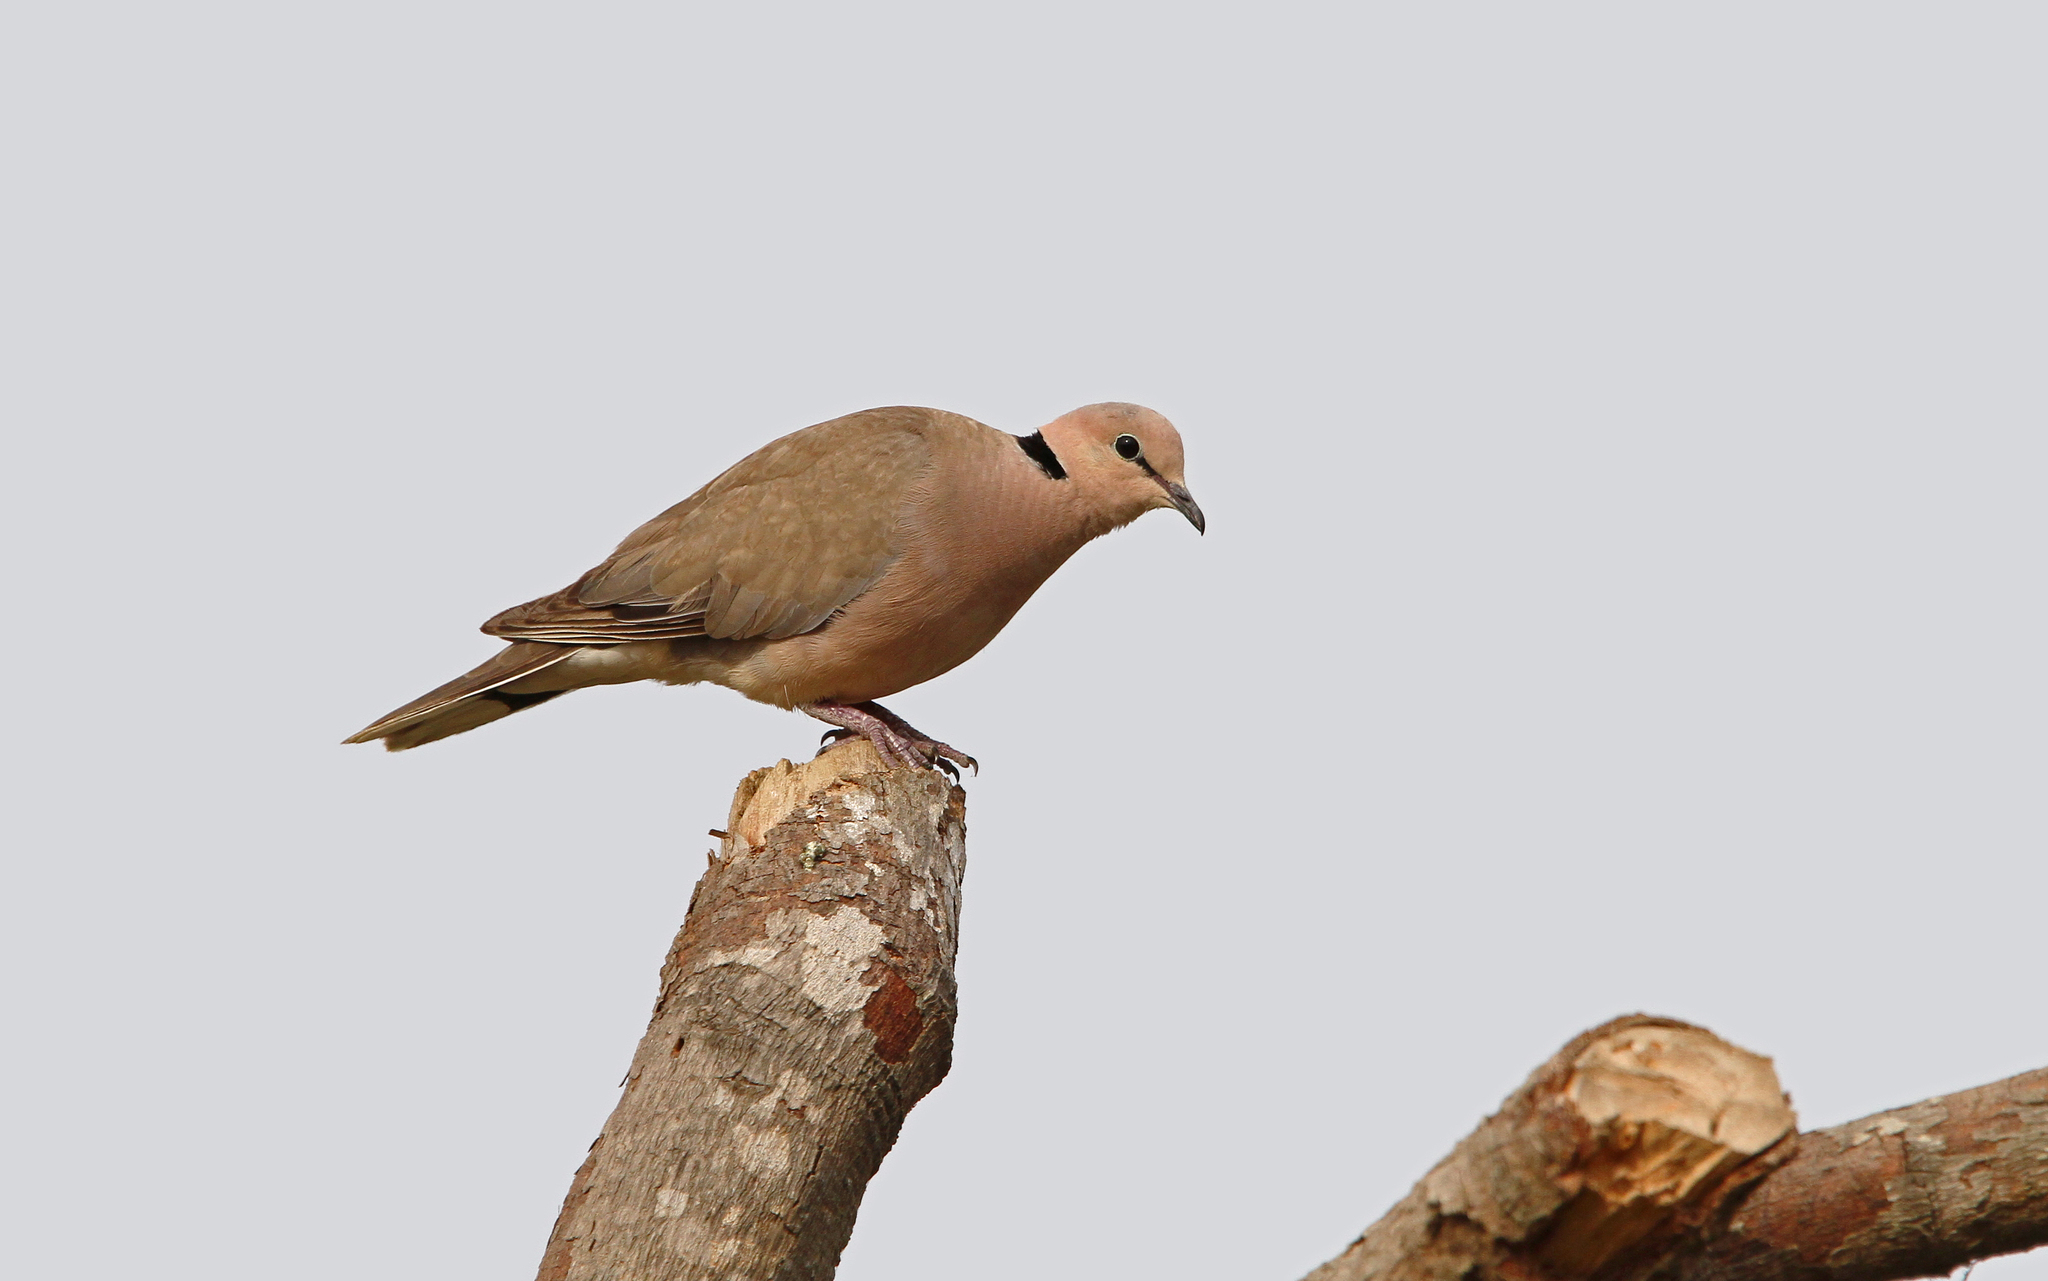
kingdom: Animalia
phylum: Chordata
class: Aves
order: Columbiformes
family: Columbidae
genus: Streptopelia
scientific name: Streptopelia vinacea
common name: Vinaceous dove
